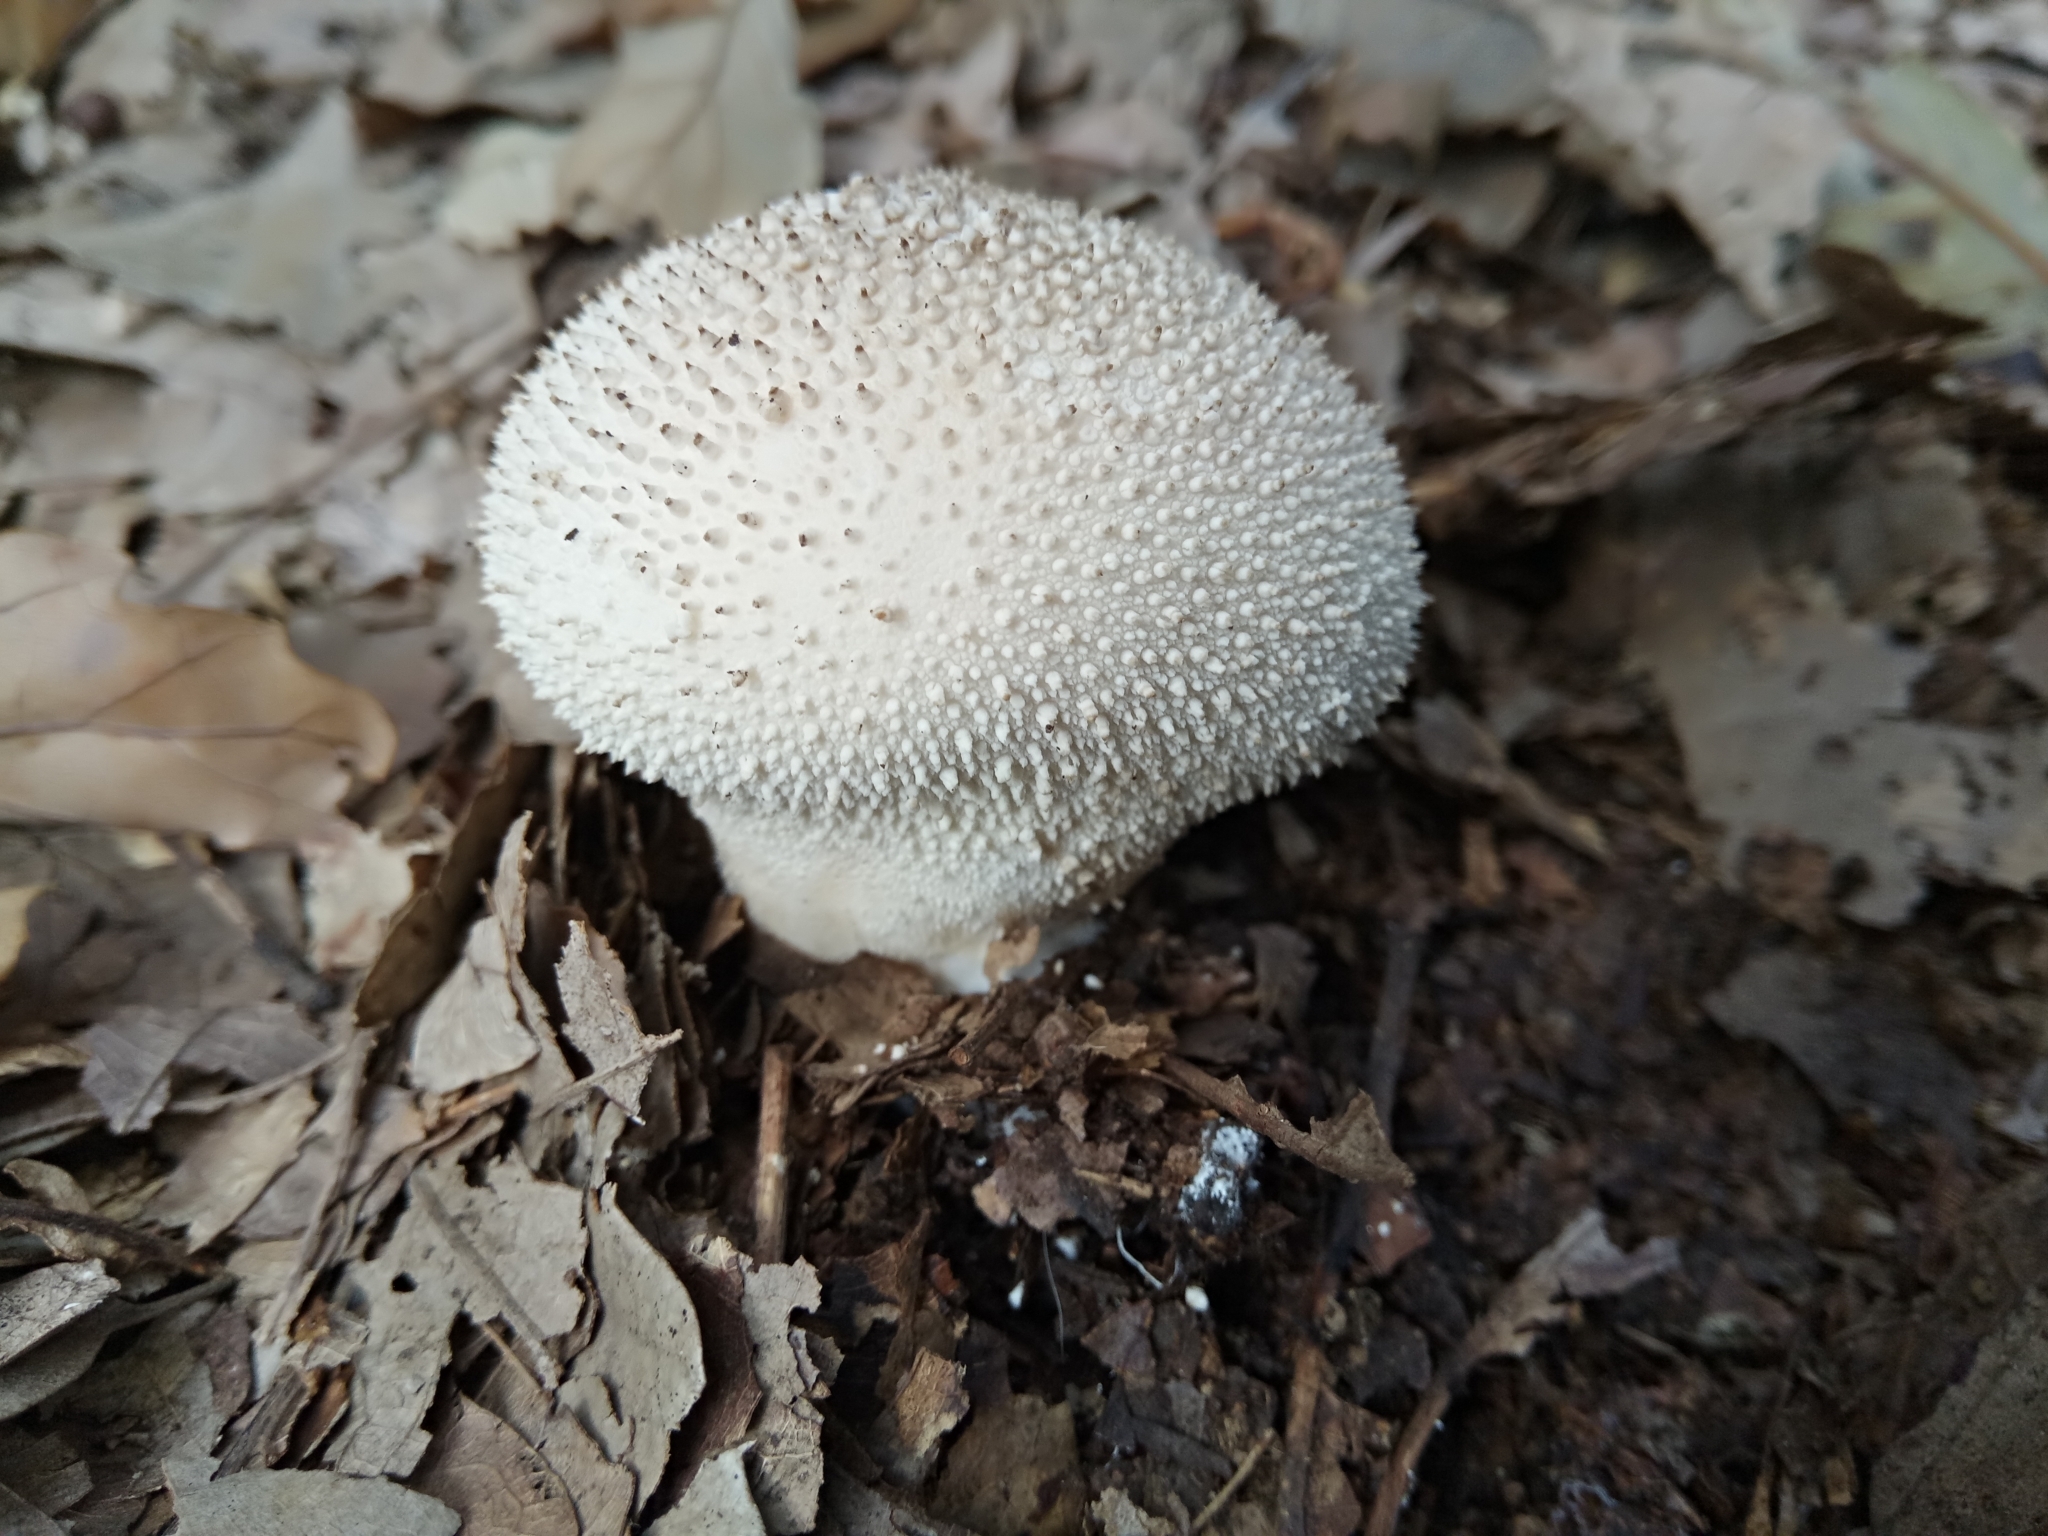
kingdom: Fungi
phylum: Basidiomycota
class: Agaricomycetes
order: Agaricales
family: Lycoperdaceae
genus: Lycoperdon
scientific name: Lycoperdon perlatum
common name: Common puffball
